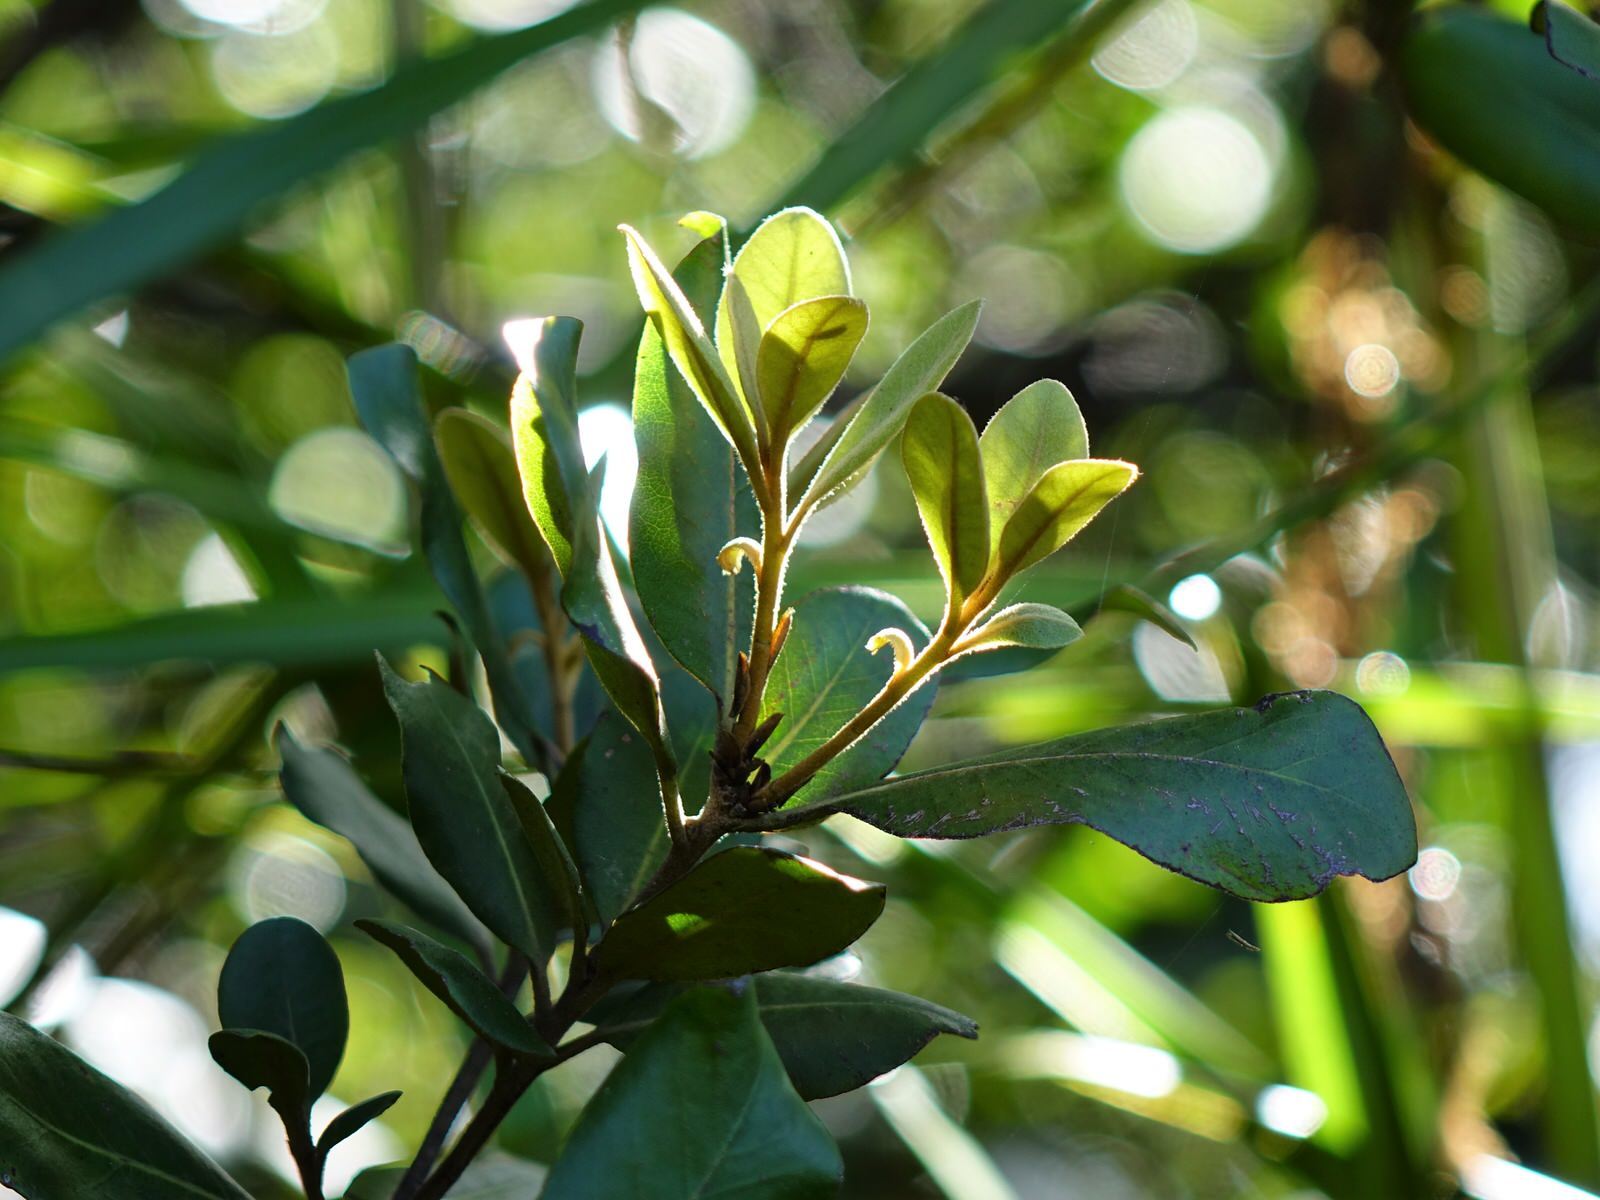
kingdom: Plantae
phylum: Tracheophyta
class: Magnoliopsida
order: Apiales
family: Pittosporaceae
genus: Pittosporum
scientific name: Pittosporum ellipticum
